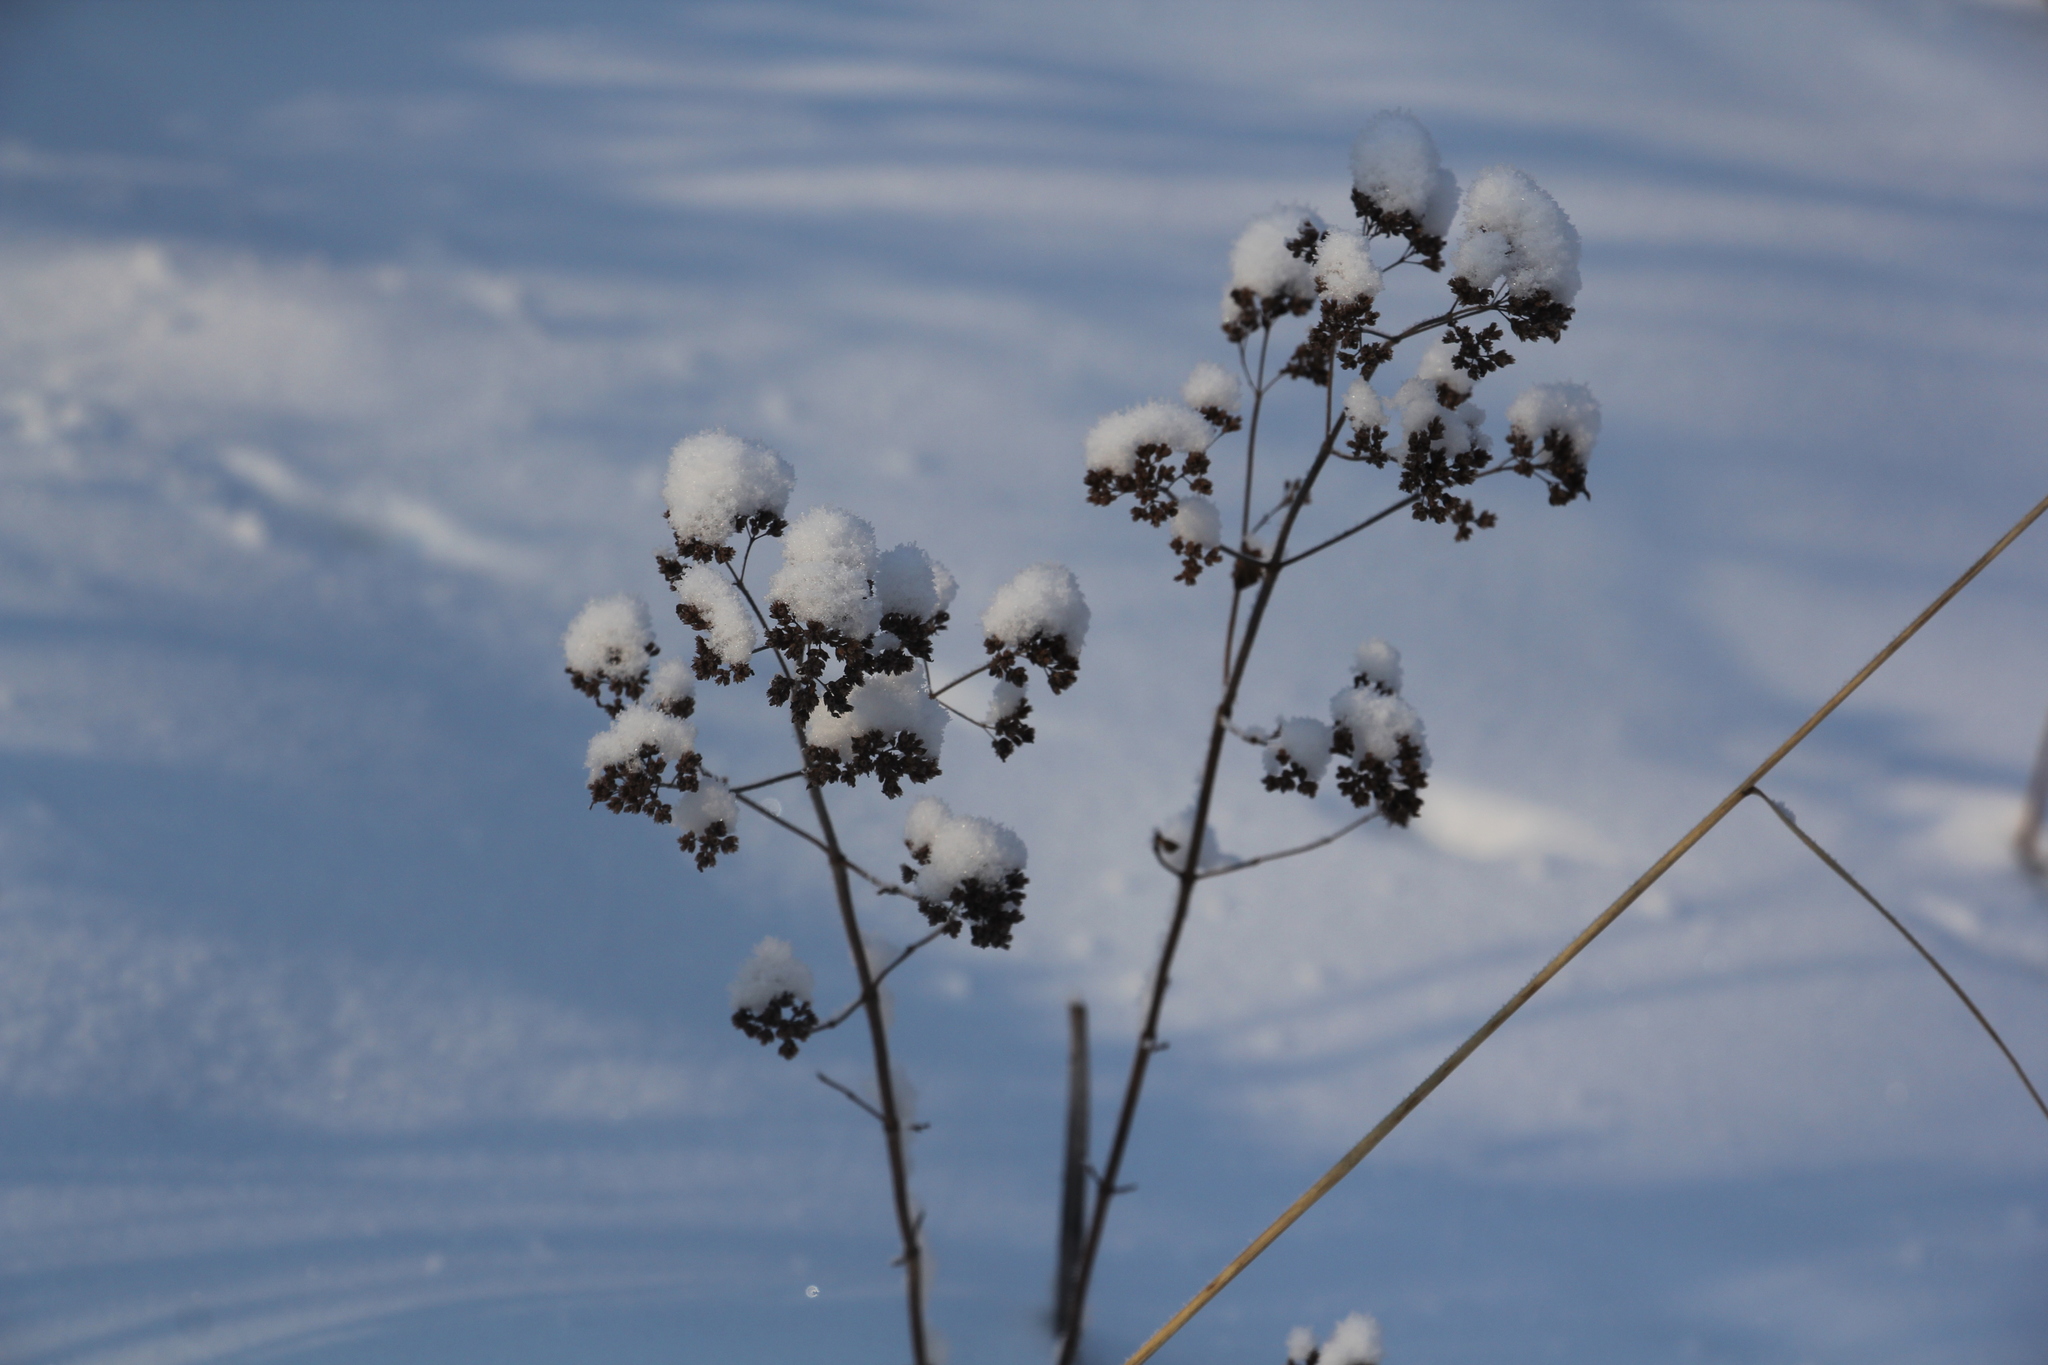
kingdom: Plantae
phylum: Tracheophyta
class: Magnoliopsida
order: Lamiales
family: Lamiaceae
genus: Origanum
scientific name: Origanum vulgare
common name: Wild marjoram
